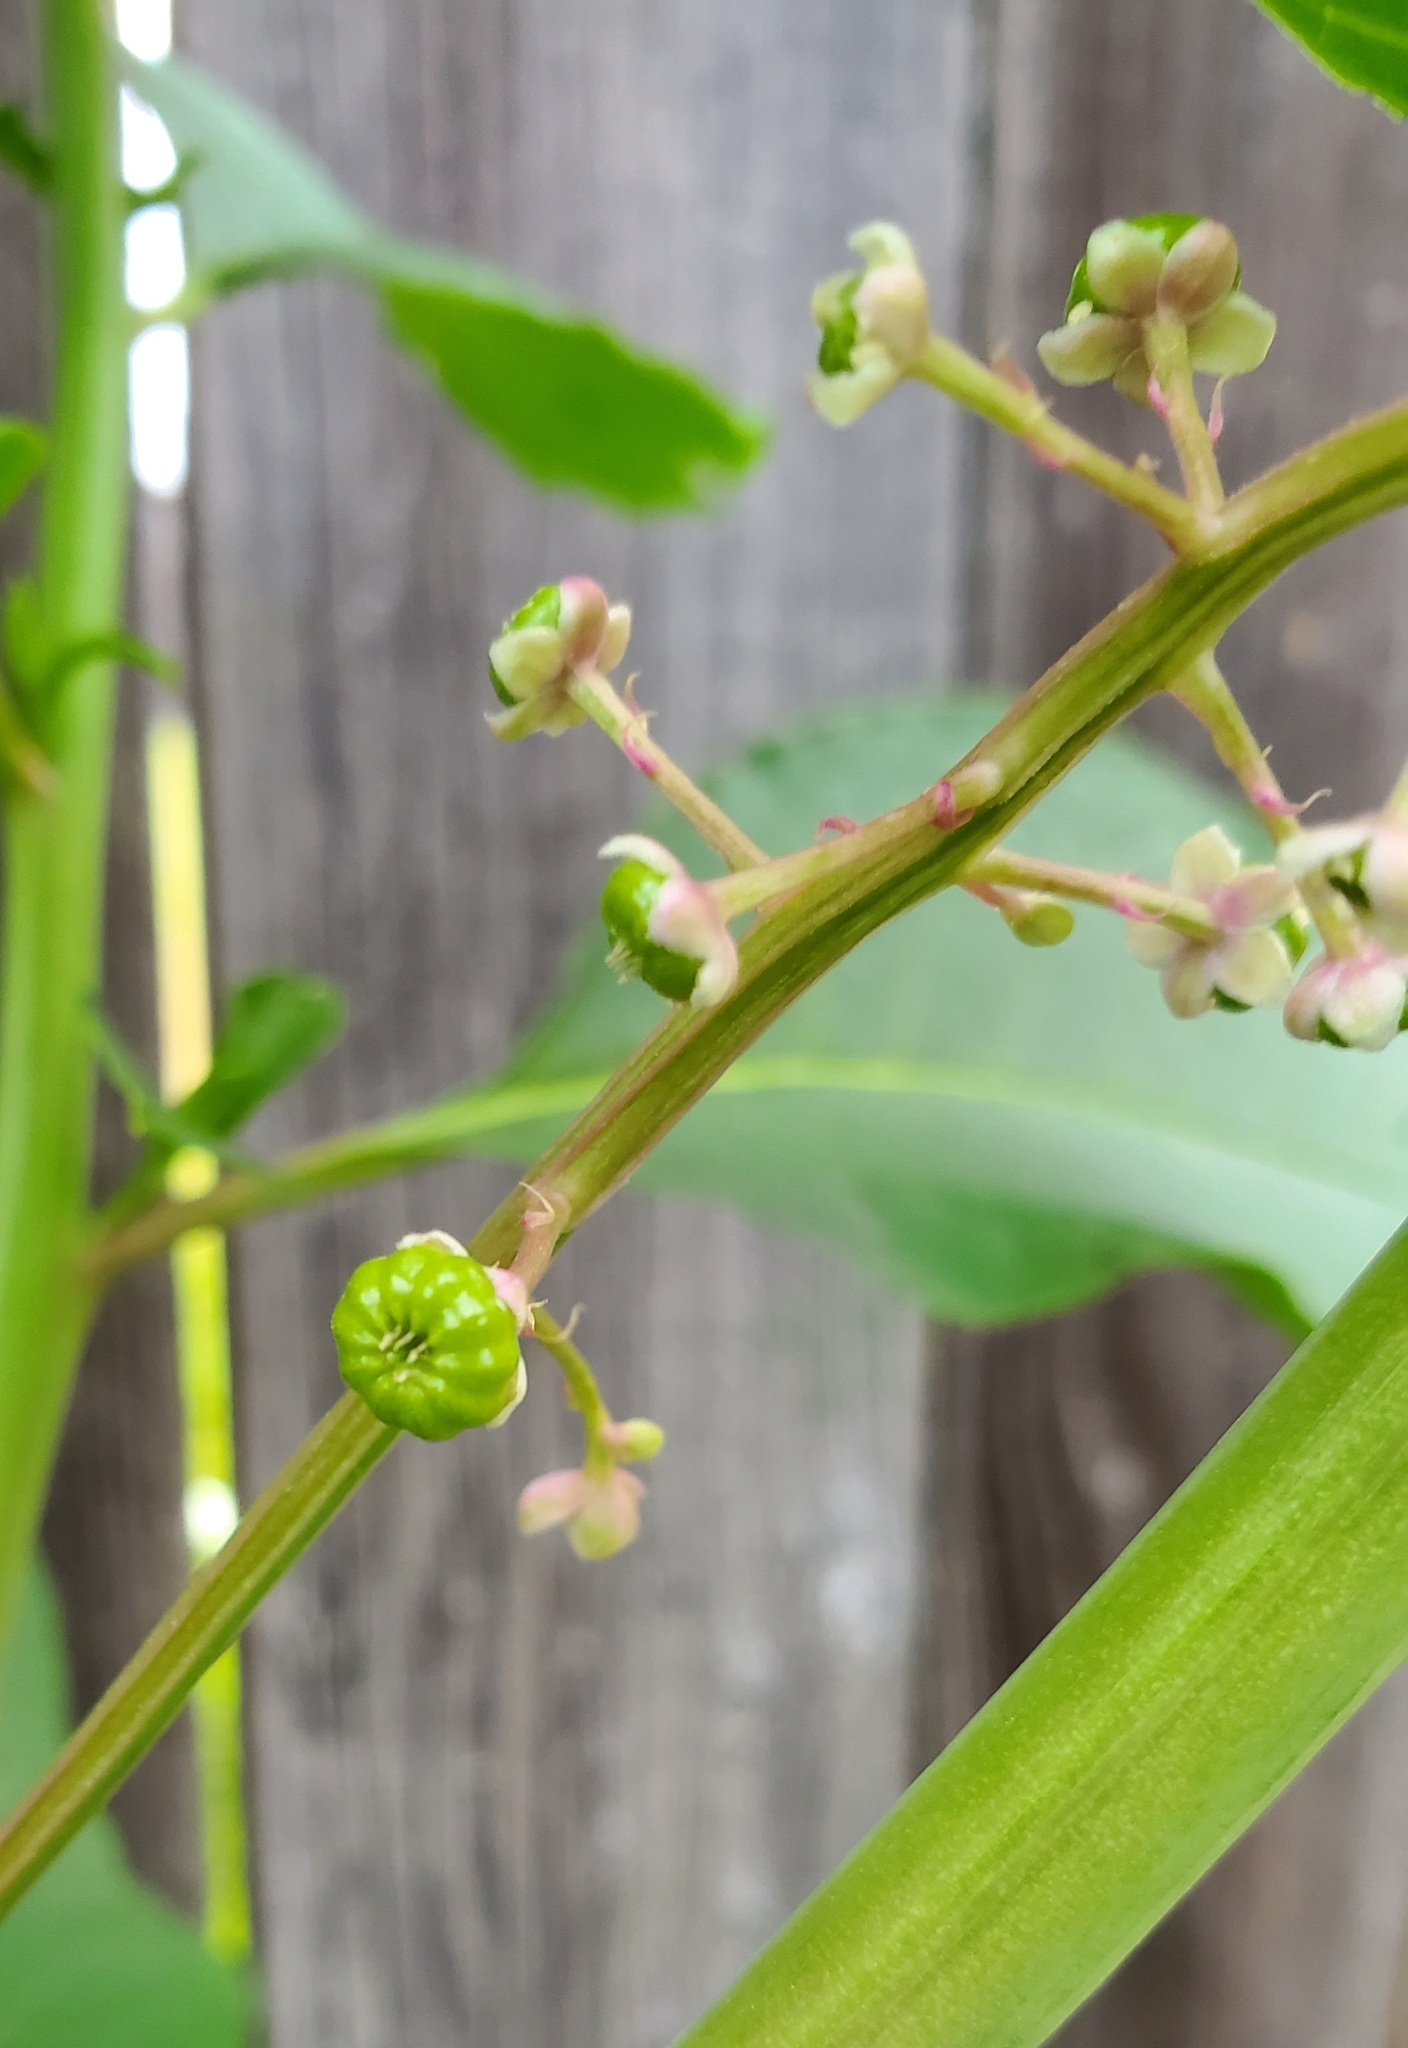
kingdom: Plantae
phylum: Tracheophyta
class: Magnoliopsida
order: Caryophyllales
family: Phytolaccaceae
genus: Phytolacca
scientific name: Phytolacca americana
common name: American pokeweed
